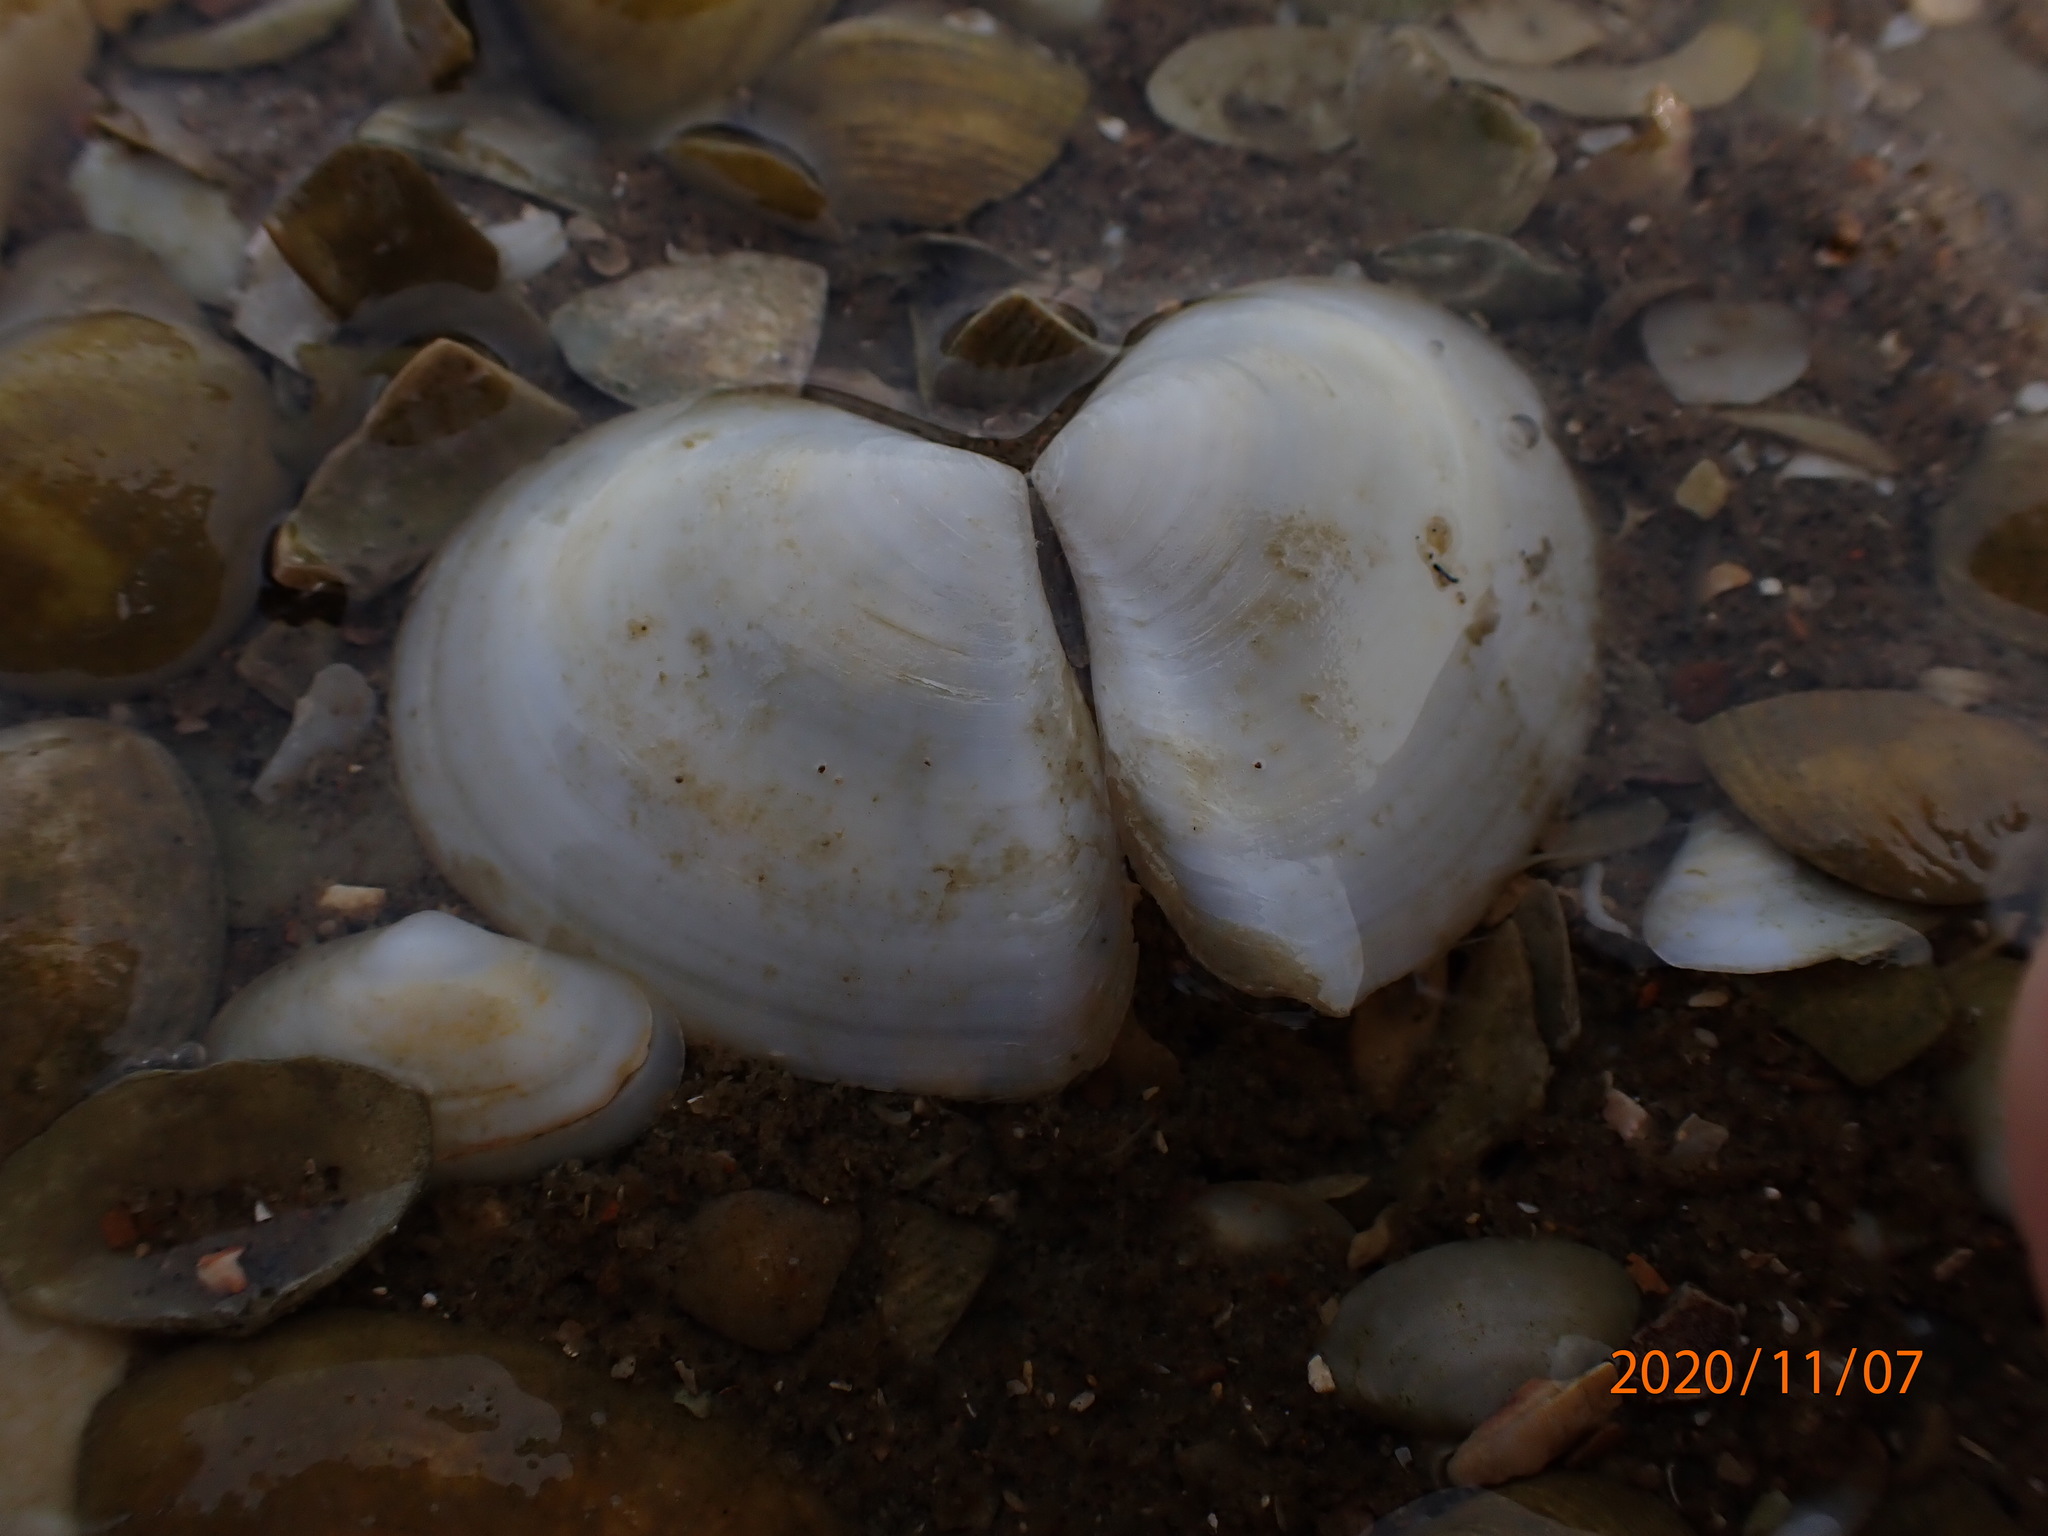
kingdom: Animalia
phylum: Mollusca
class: Bivalvia
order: Cardiida
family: Tellinidae
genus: Macomona
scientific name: Macomona liliana
